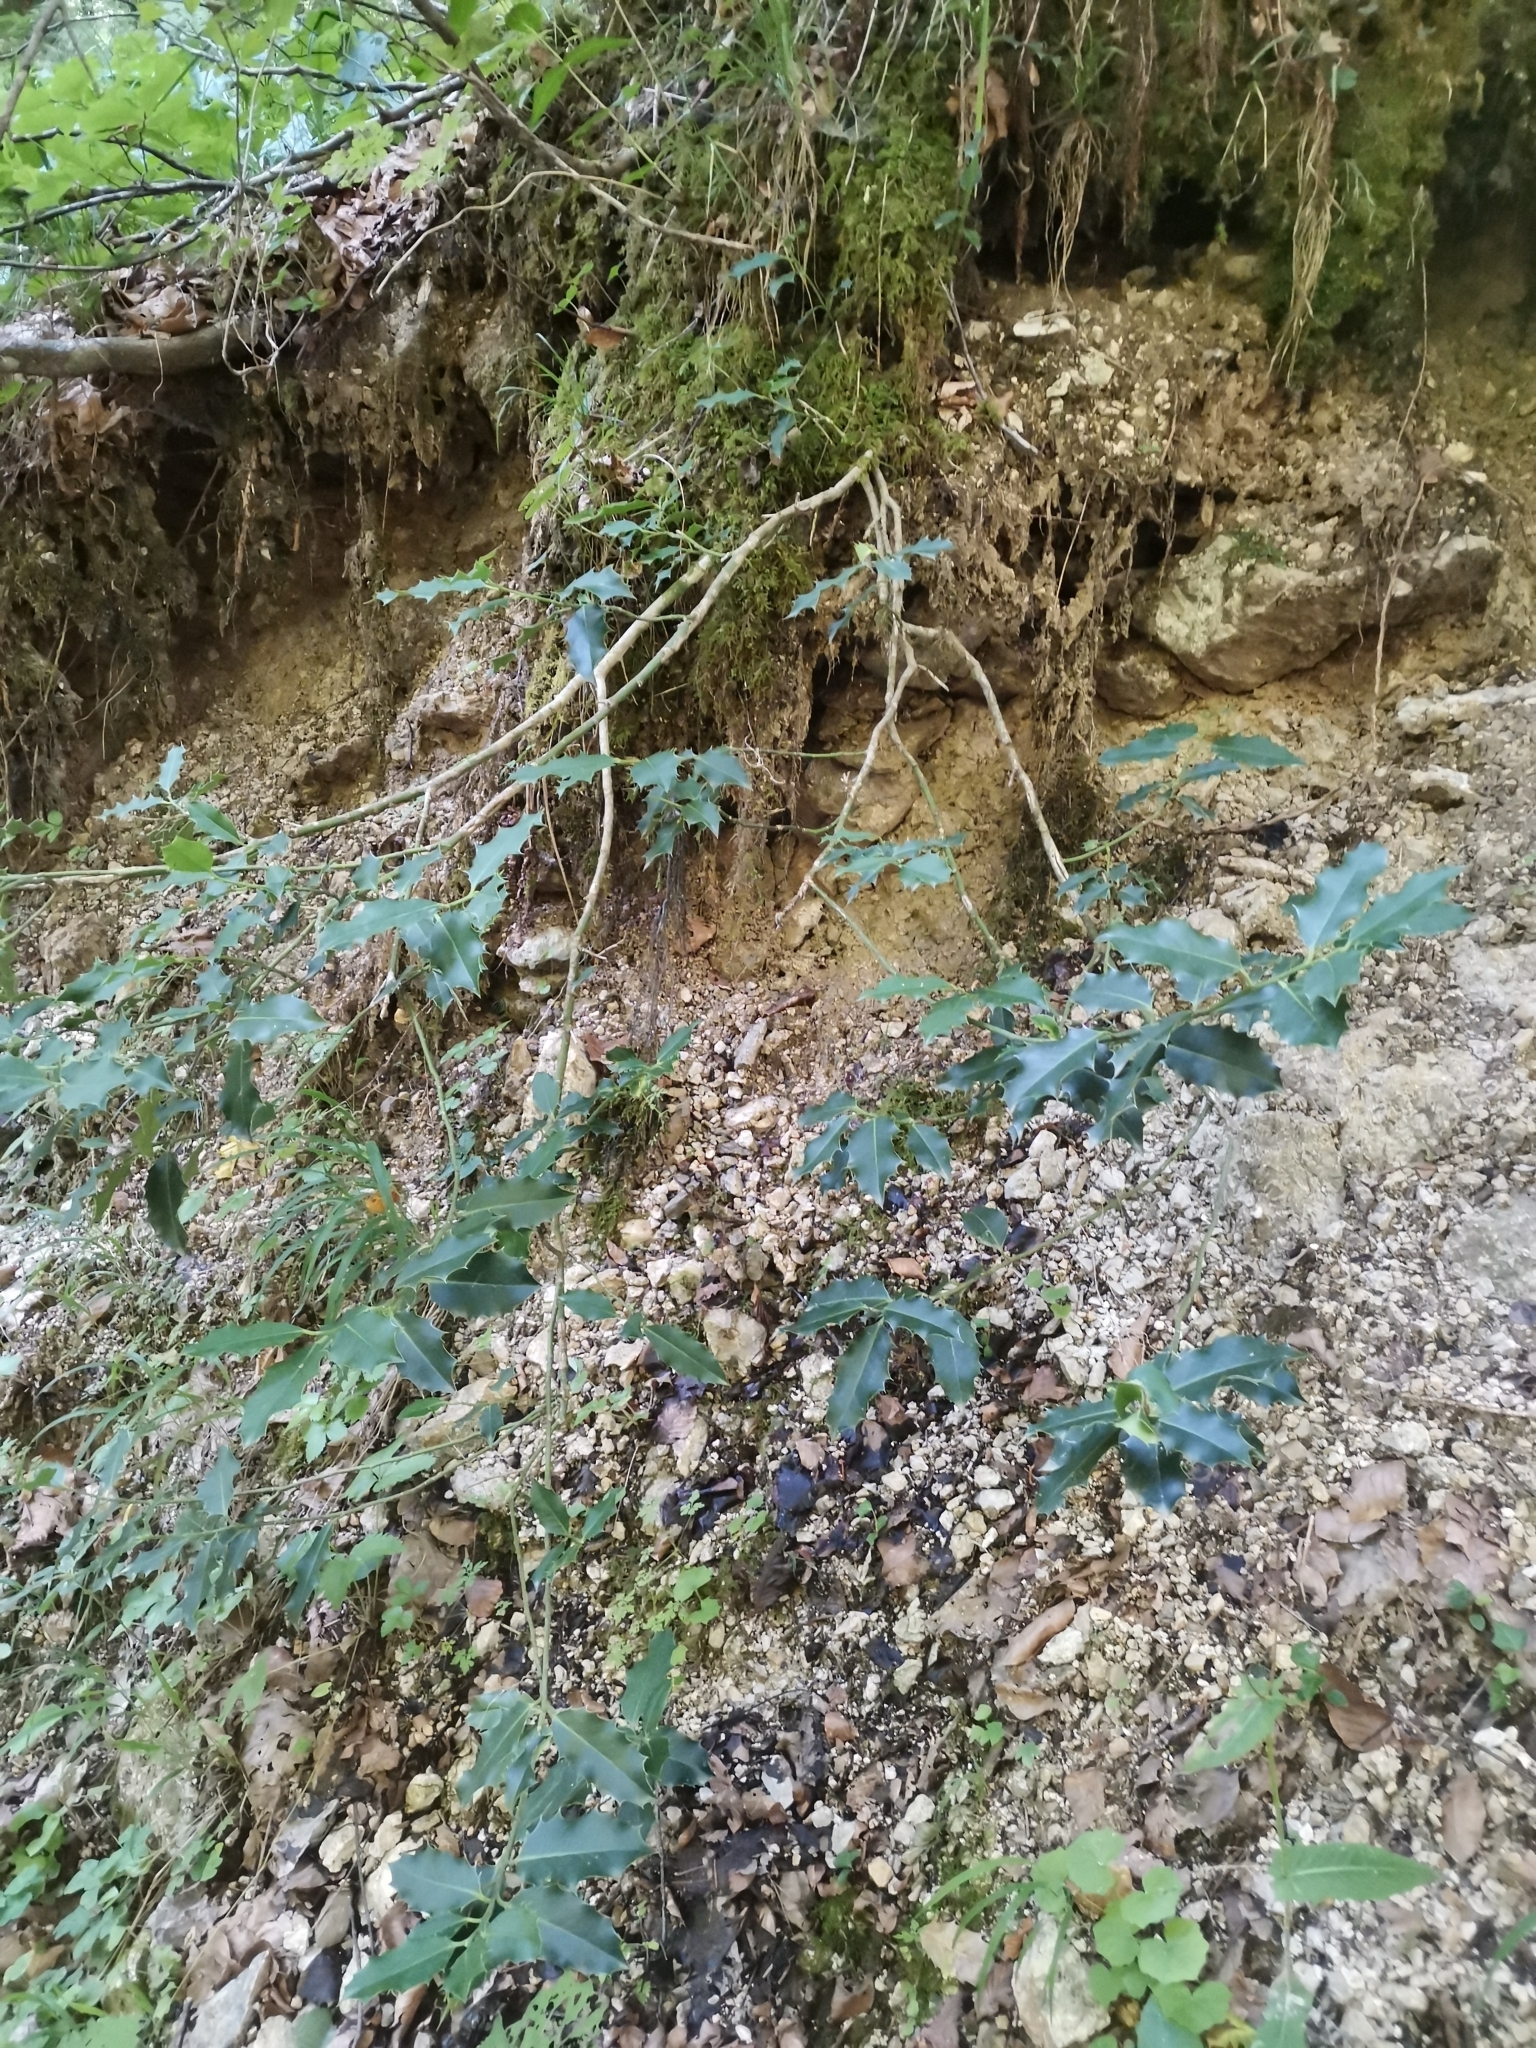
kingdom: Plantae
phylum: Tracheophyta
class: Magnoliopsida
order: Aquifoliales
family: Aquifoliaceae
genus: Ilex
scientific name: Ilex aquifolium
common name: English holly
